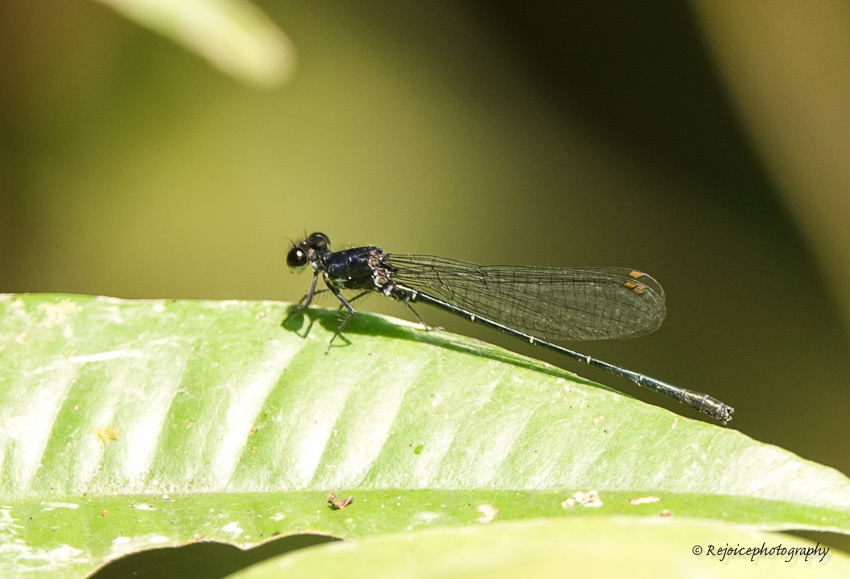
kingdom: Animalia
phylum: Arthropoda
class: Insecta
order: Odonata
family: Platycnemididae
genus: Onychargia
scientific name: Onychargia atrocyana
